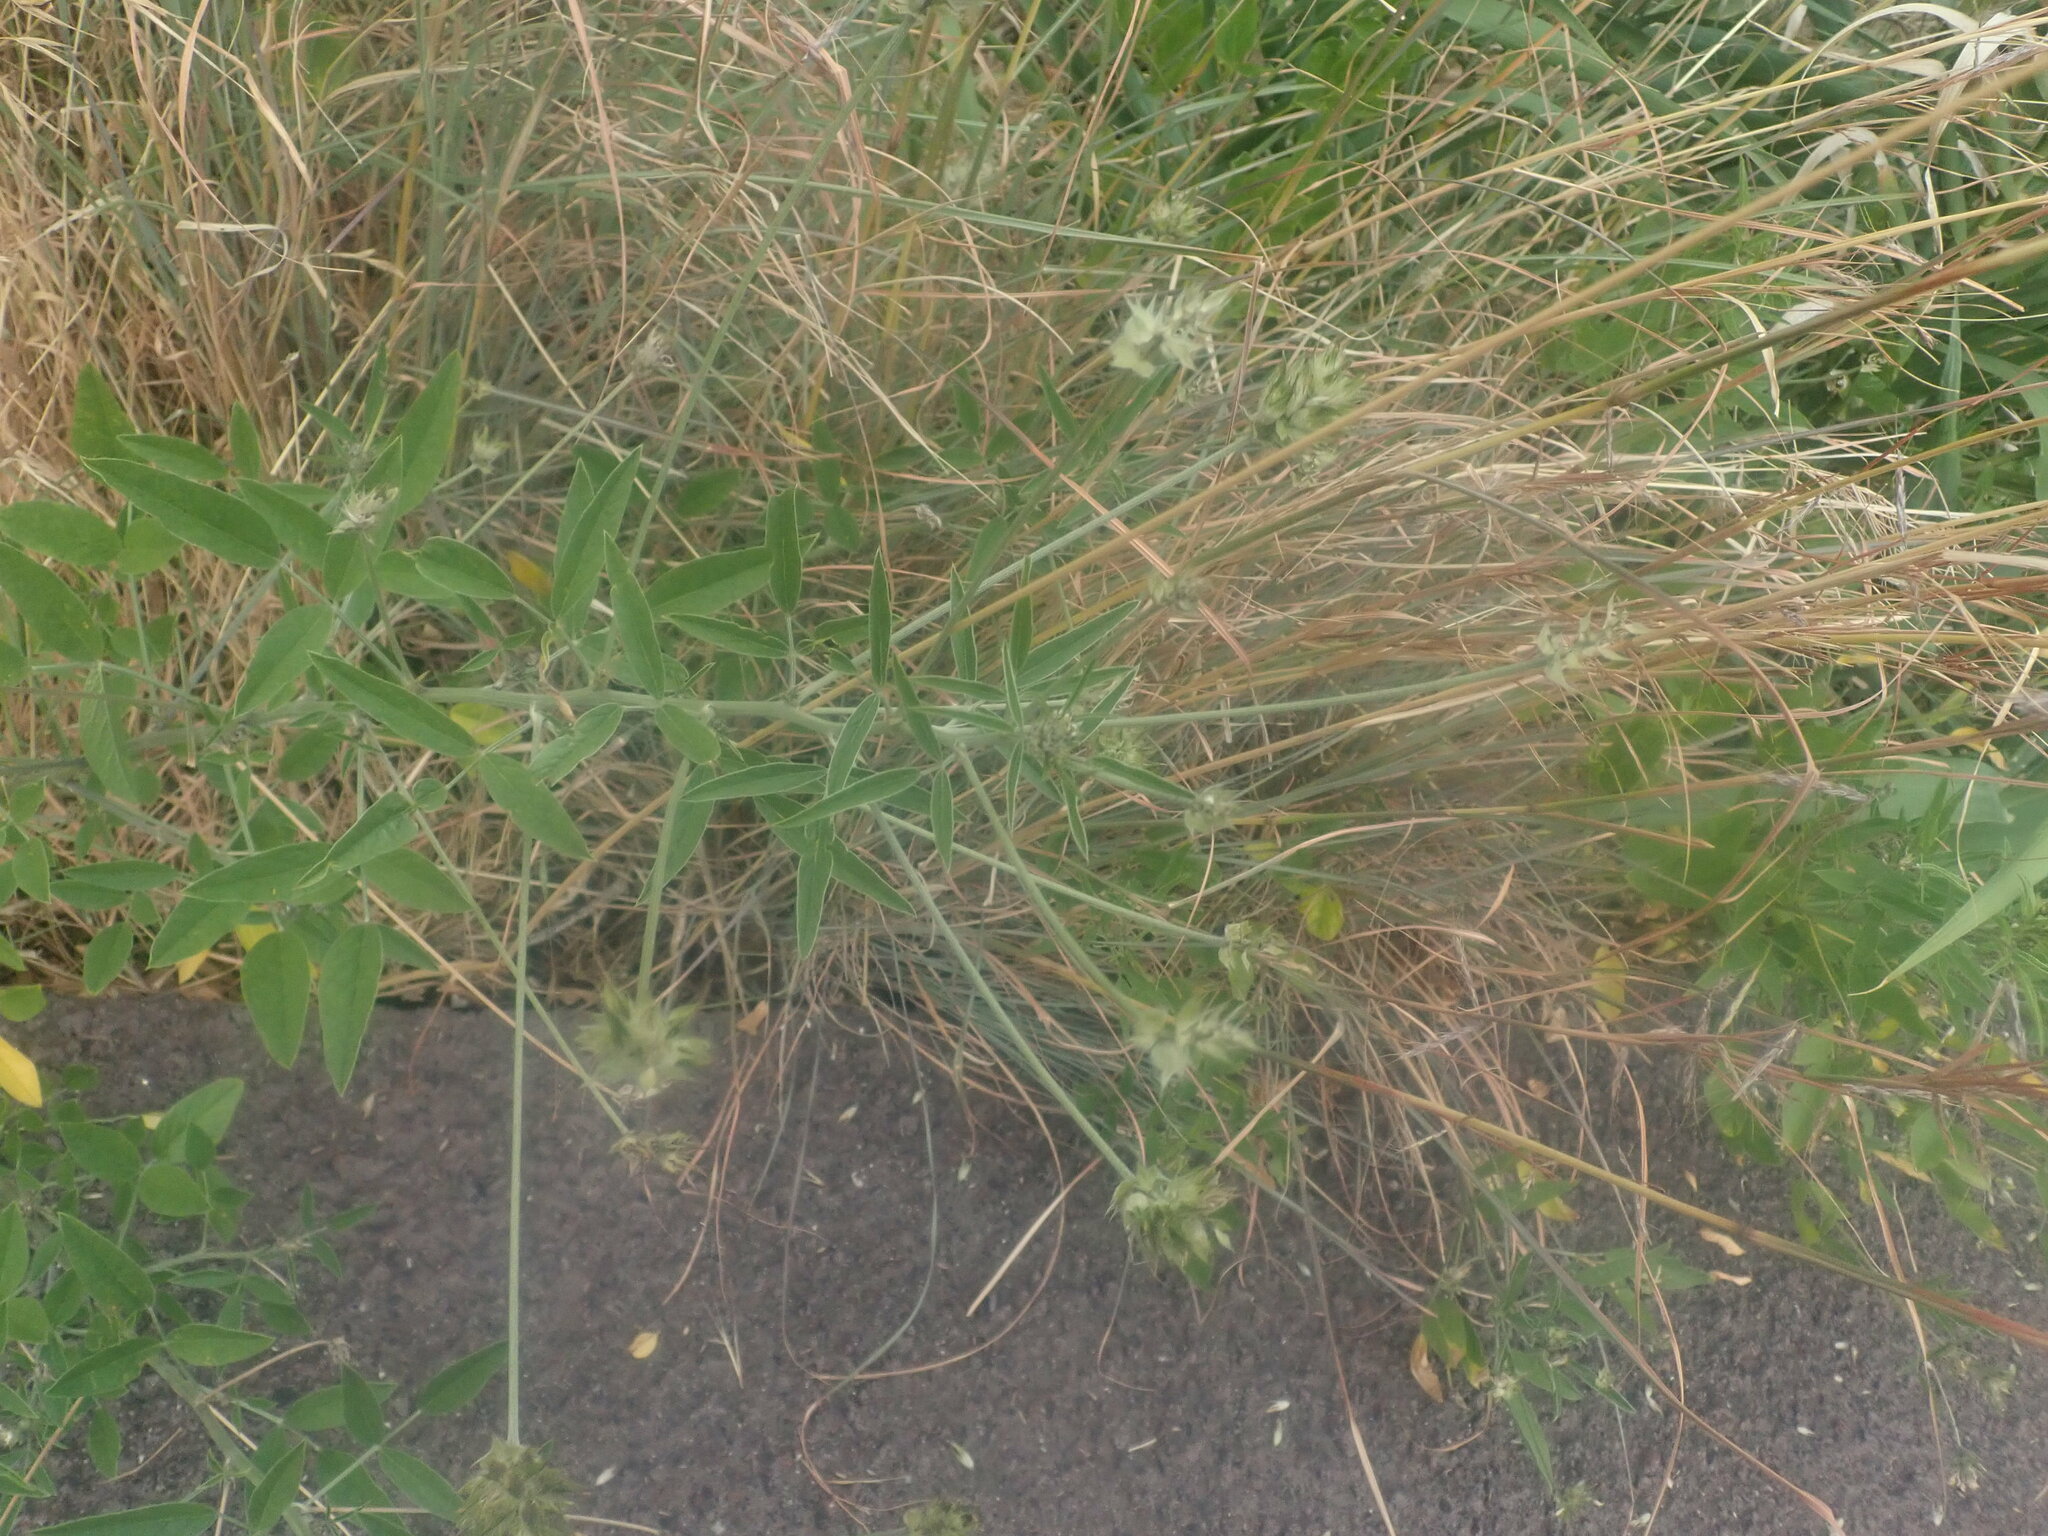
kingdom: Plantae
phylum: Tracheophyta
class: Magnoliopsida
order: Fabales
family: Fabaceae
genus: Bituminaria
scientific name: Bituminaria bituminosa
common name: Arabian pea
